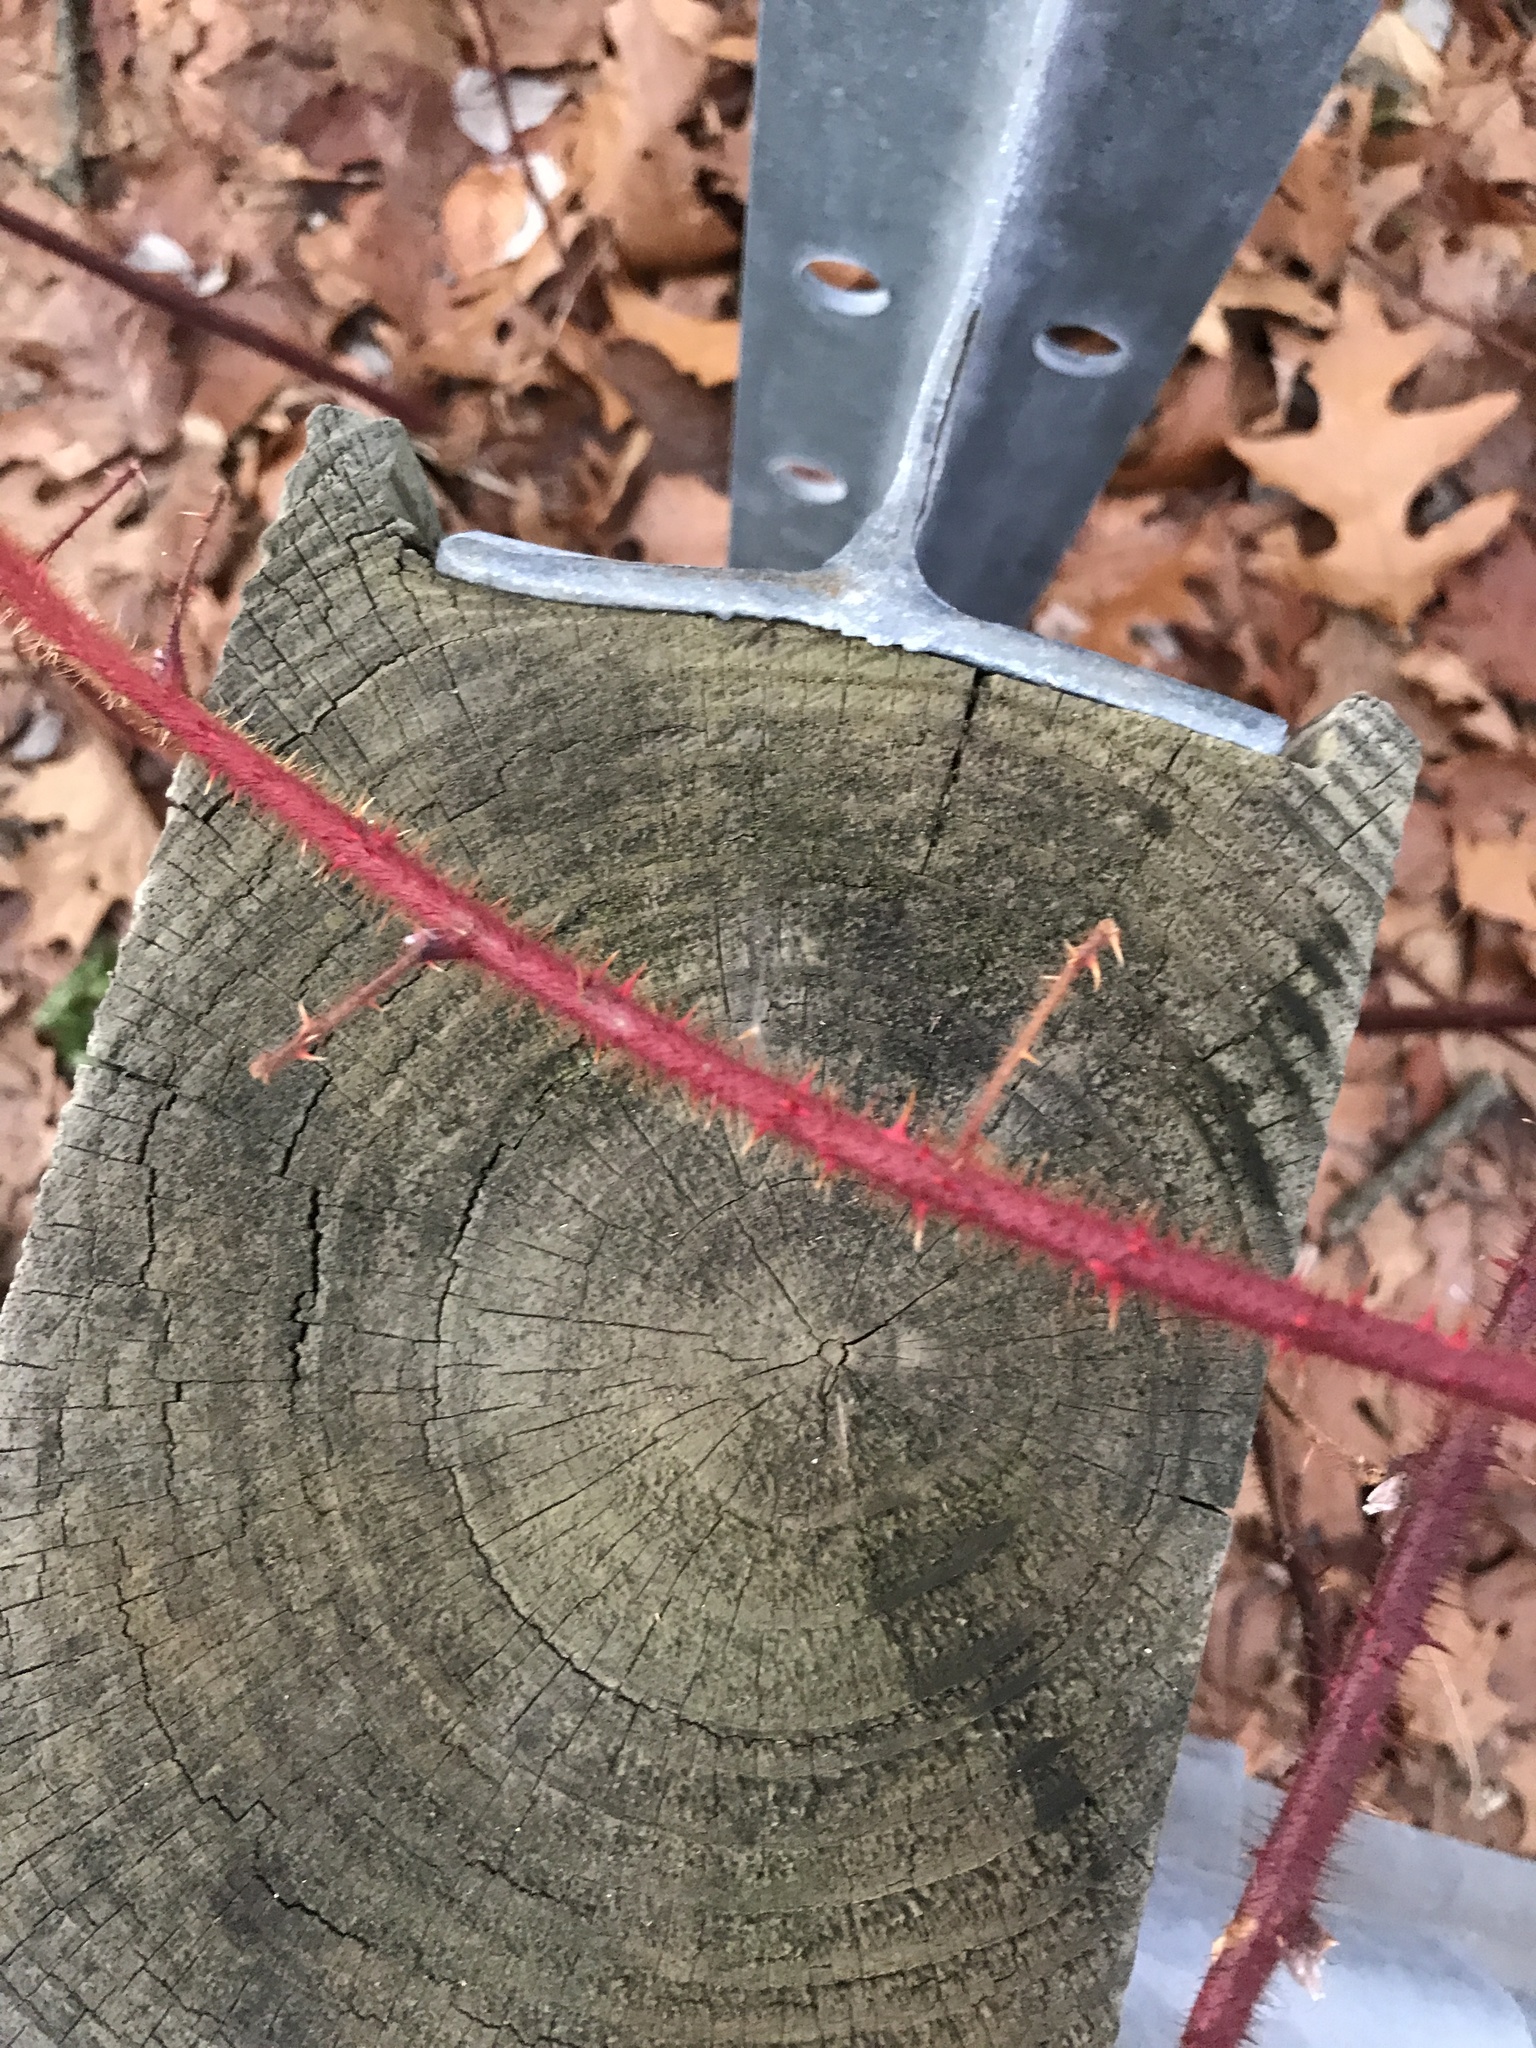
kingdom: Plantae
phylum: Tracheophyta
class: Magnoliopsida
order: Rosales
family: Rosaceae
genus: Rubus
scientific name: Rubus phoenicolasius
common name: Japanese wineberry
